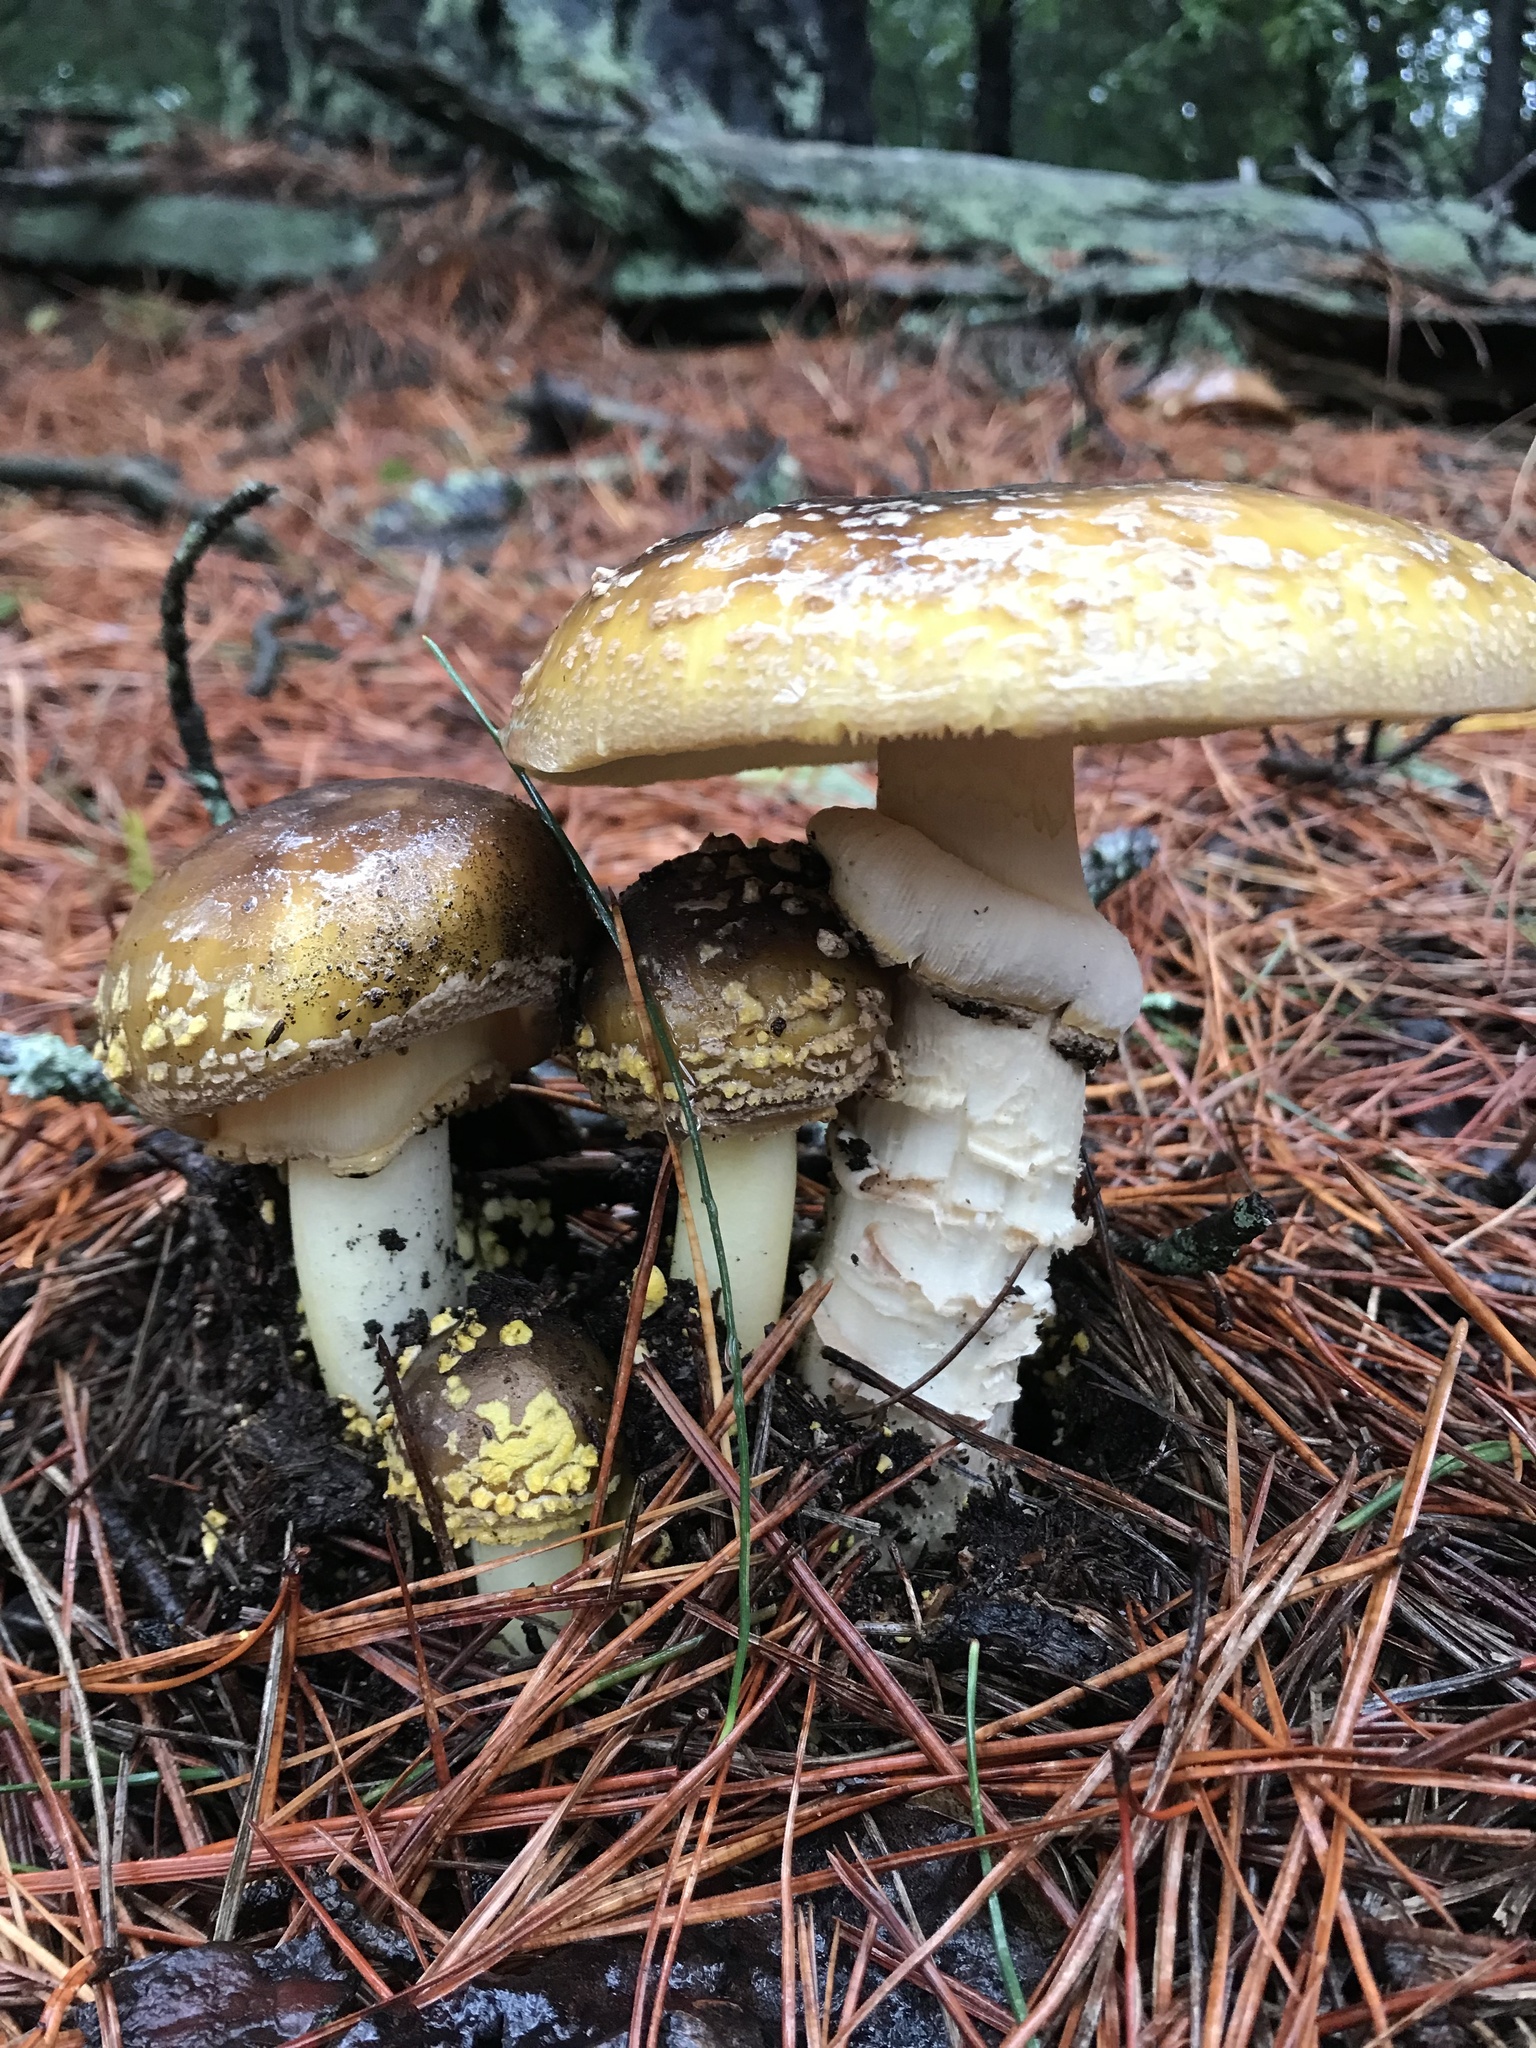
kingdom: Fungi
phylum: Basidiomycota
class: Agaricomycetes
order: Agaricales
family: Amanitaceae
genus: Amanita
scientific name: Amanita augusta
